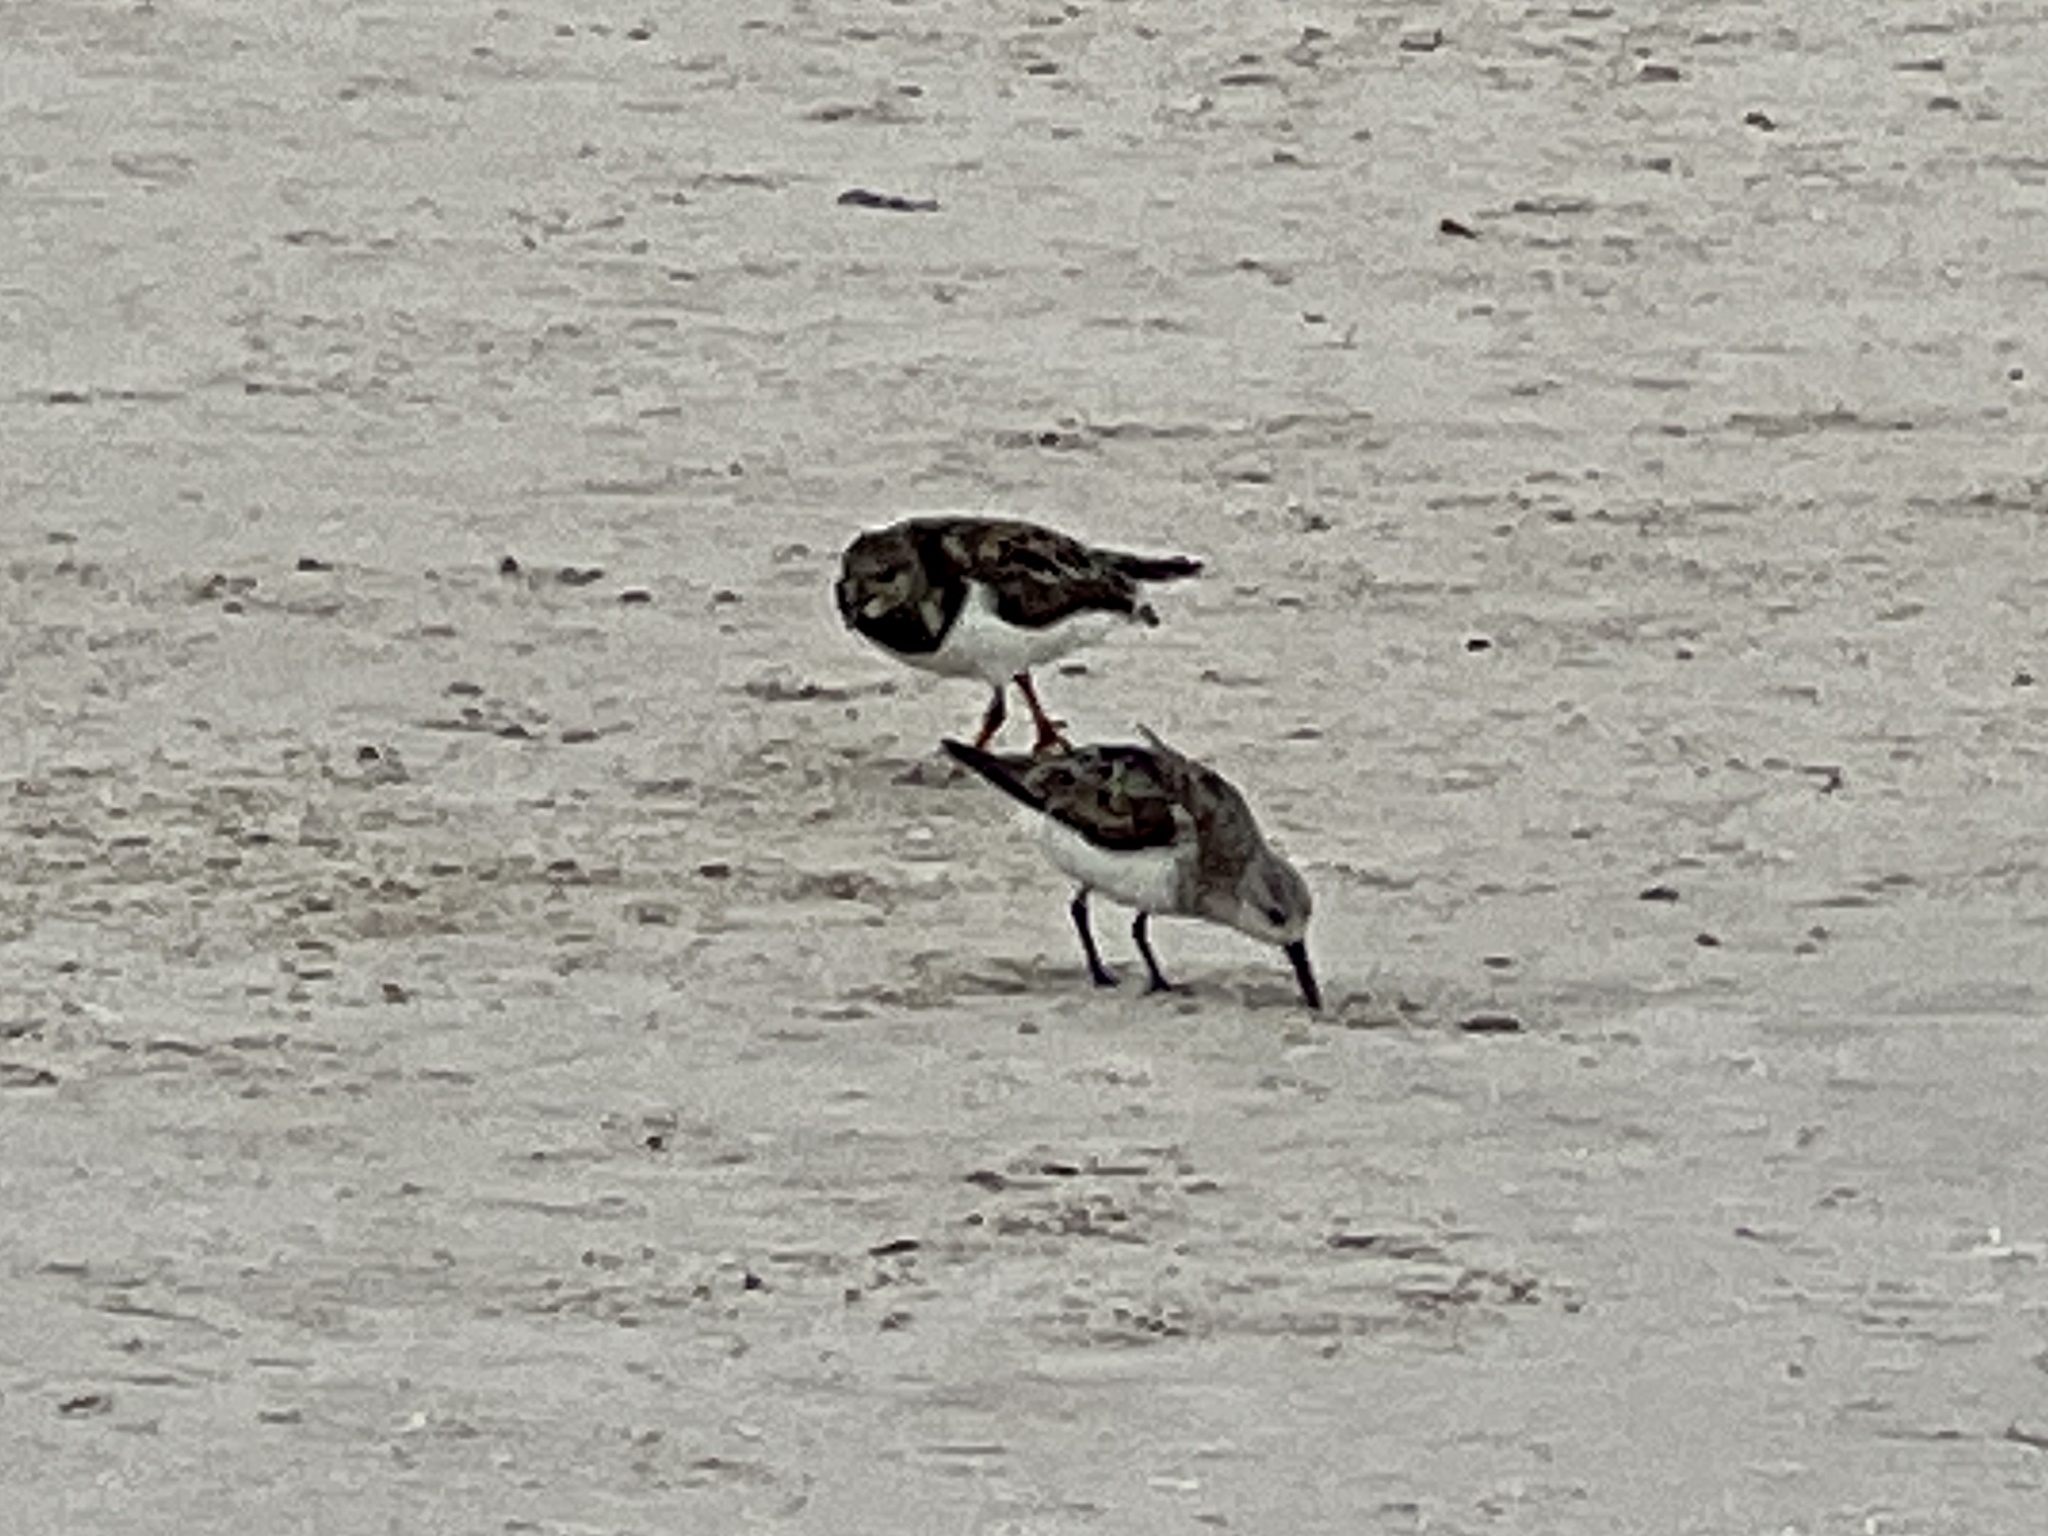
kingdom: Animalia
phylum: Chordata
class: Aves
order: Charadriiformes
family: Scolopacidae
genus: Arenaria
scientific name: Arenaria interpres
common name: Ruddy turnstone
